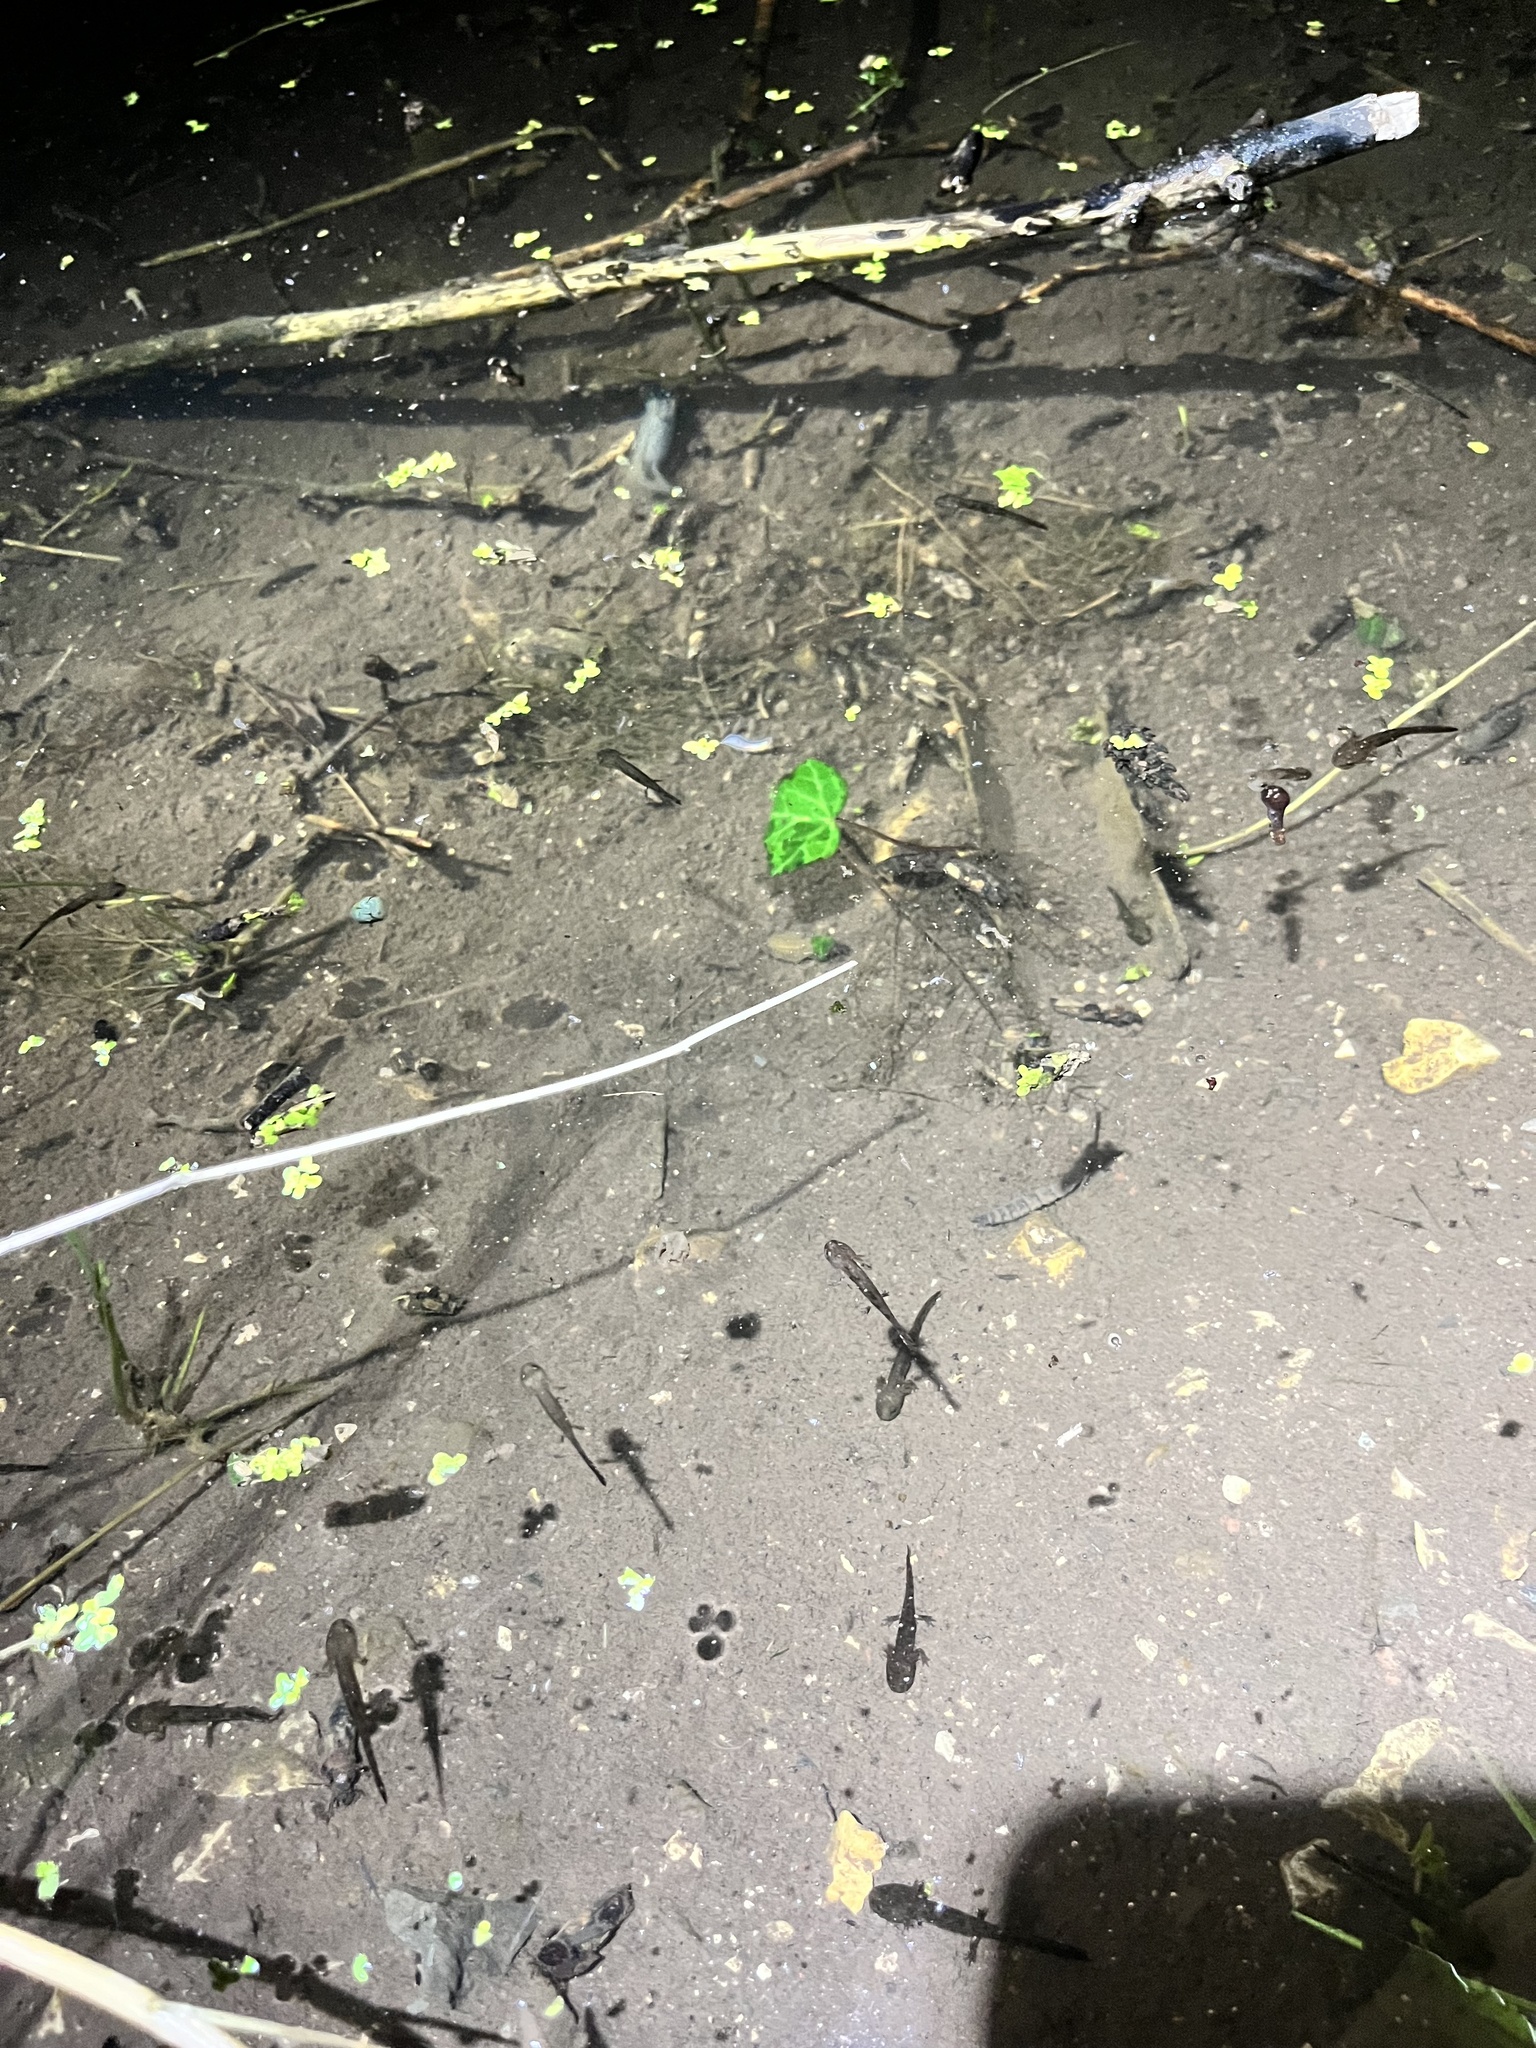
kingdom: Animalia
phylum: Chordata
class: Amphibia
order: Caudata
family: Salamandridae
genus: Salamandra
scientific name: Salamandra salamandra
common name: Fire salamander
